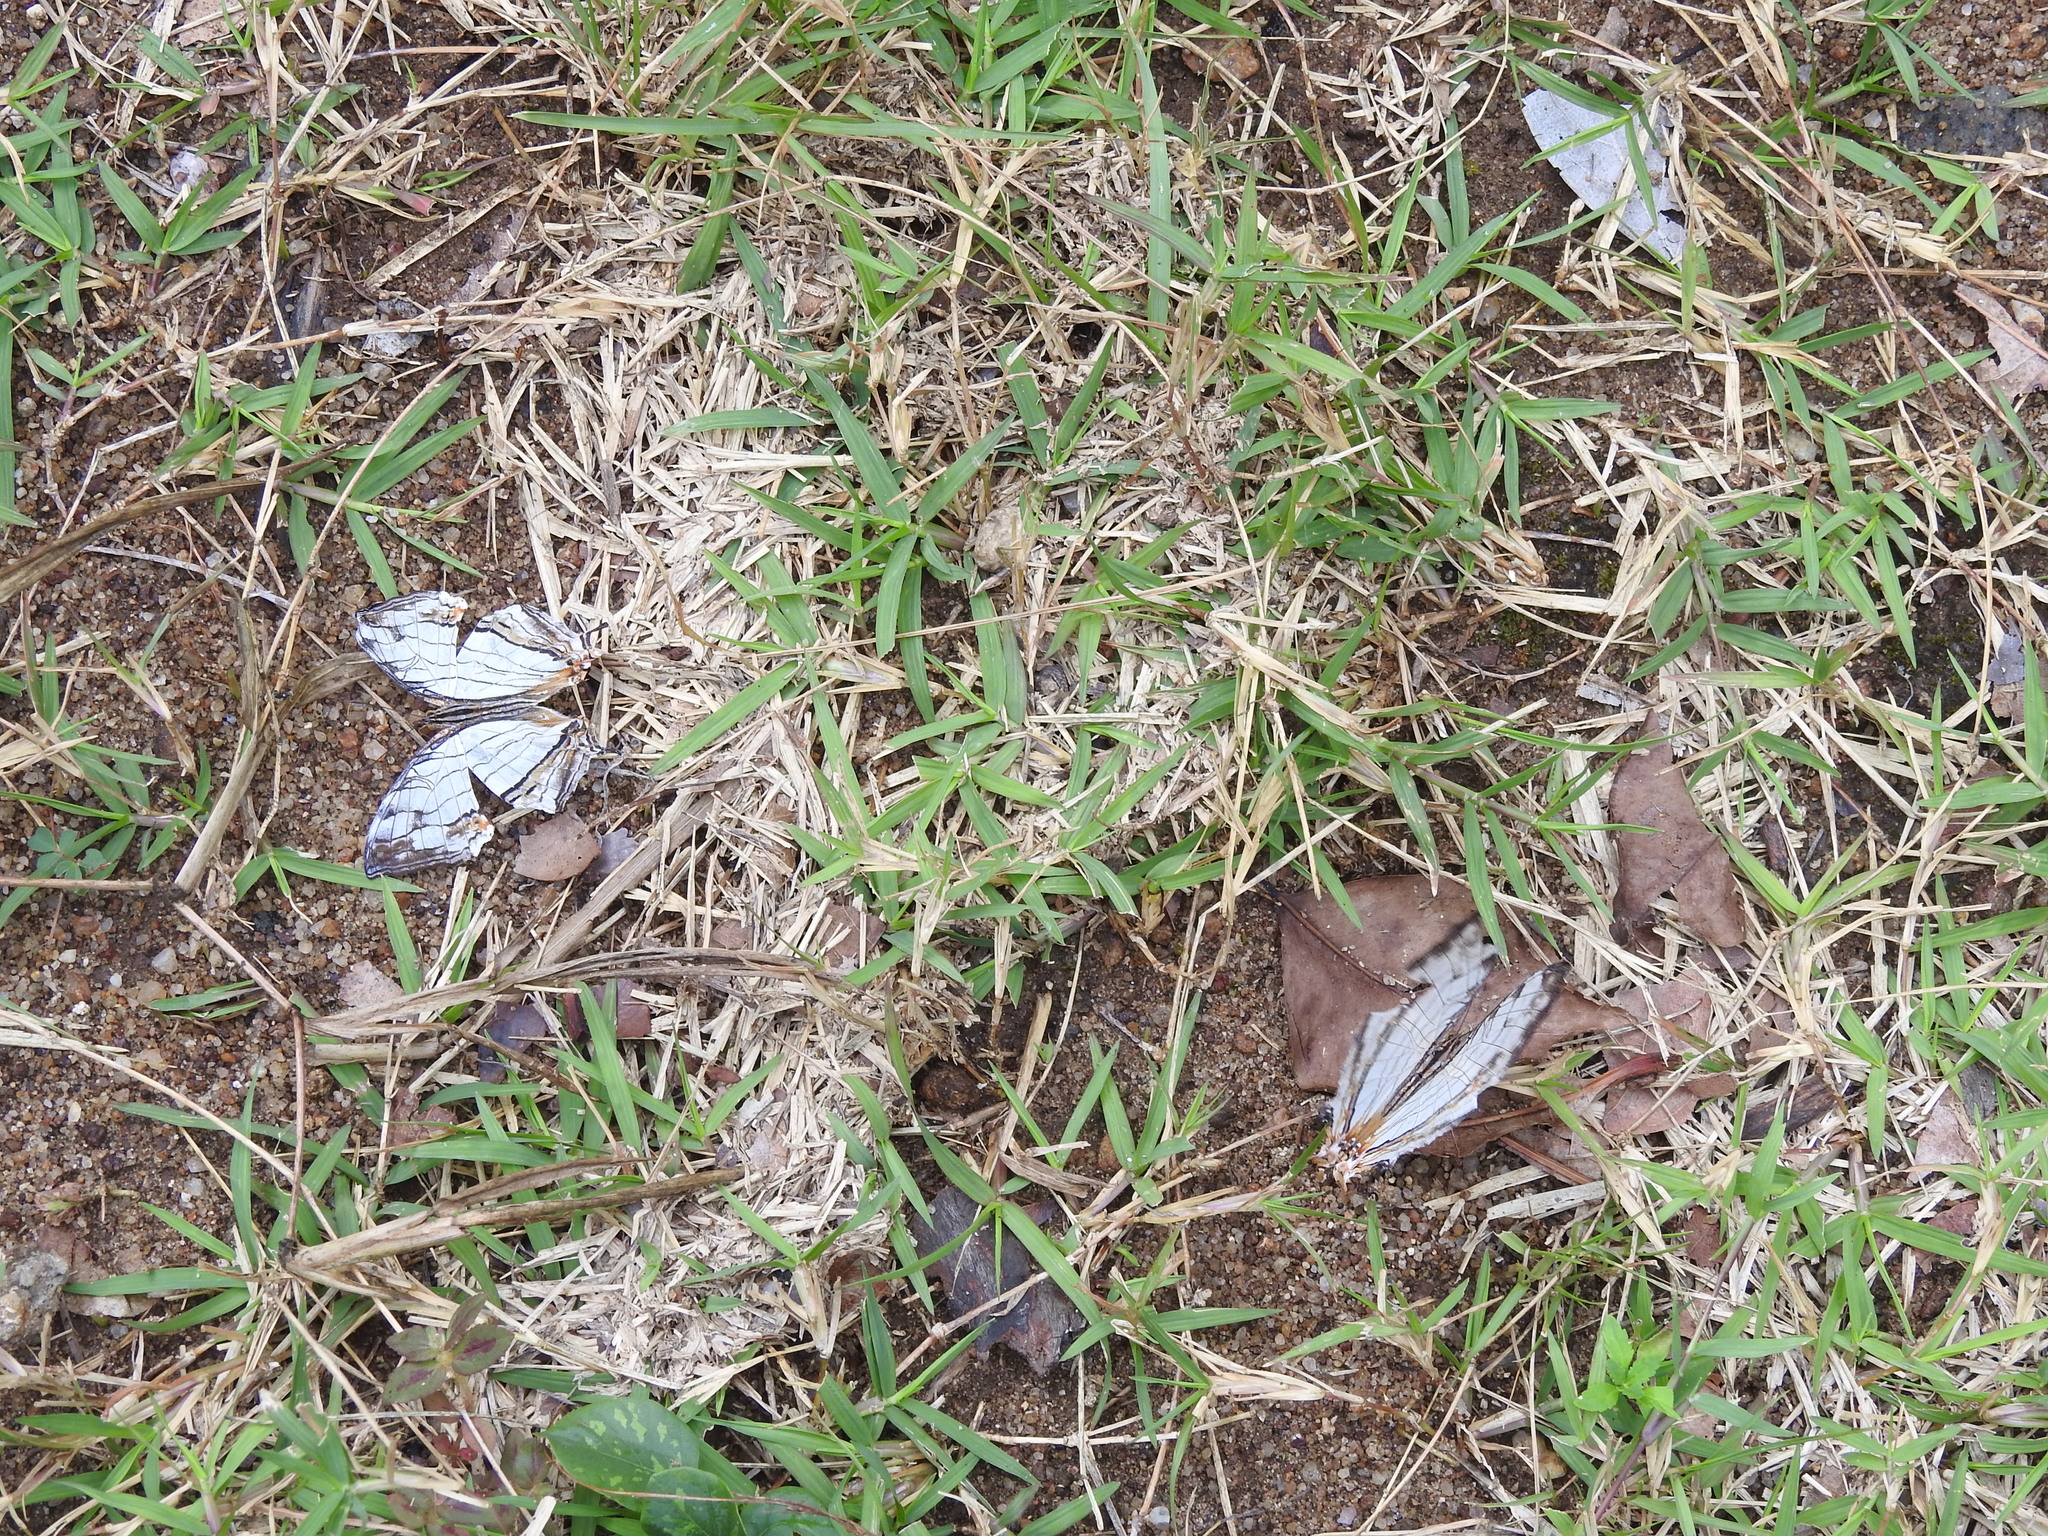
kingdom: Animalia
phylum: Arthropoda
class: Insecta
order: Lepidoptera
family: Nymphalidae
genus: Cyrestis
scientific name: Cyrestis thyodamas
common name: Common mapwing
